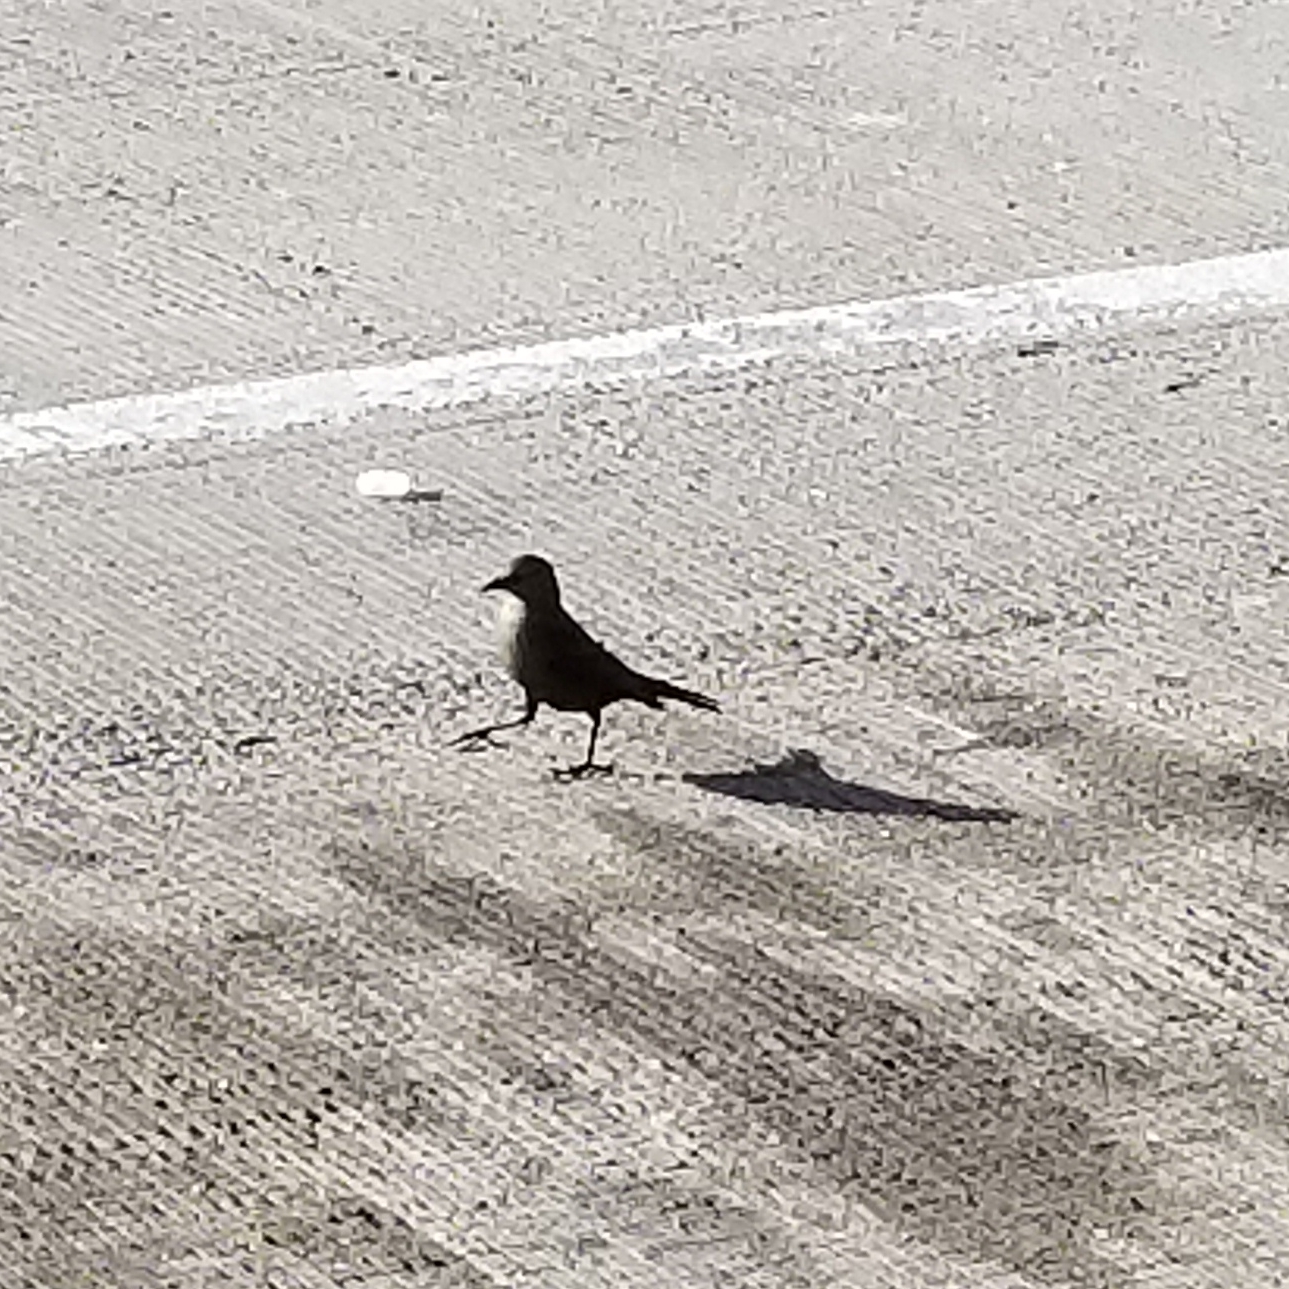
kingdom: Animalia
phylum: Chordata
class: Aves
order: Passeriformes
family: Icteridae
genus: Euphagus
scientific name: Euphagus cyanocephalus
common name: Brewer's blackbird
